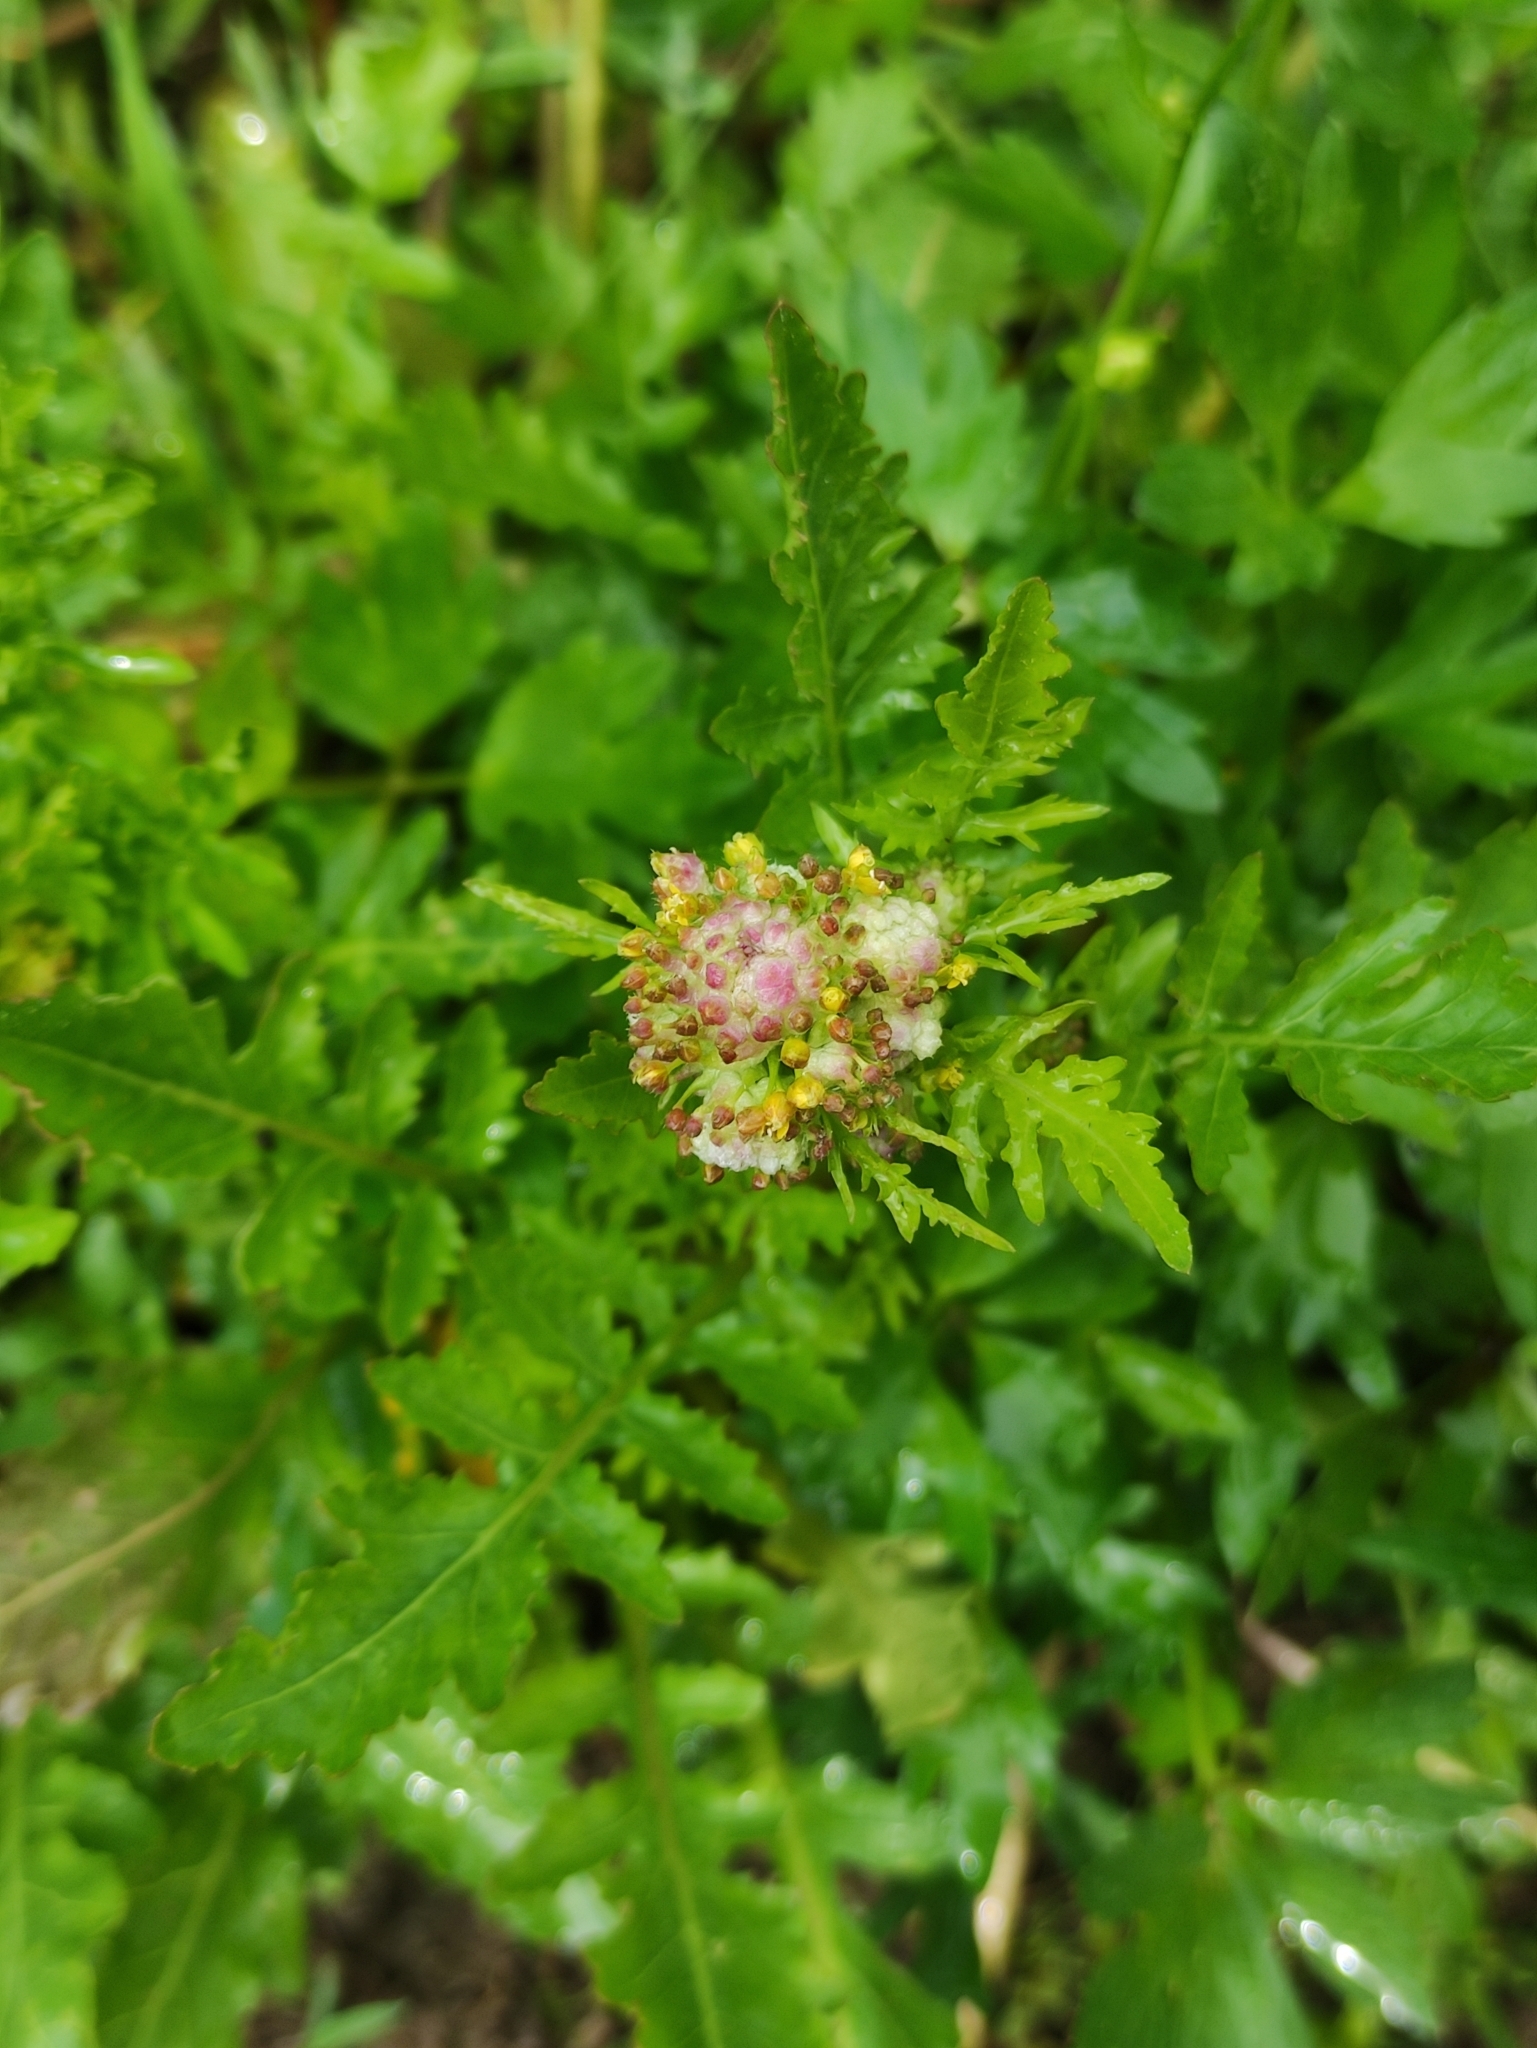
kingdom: Plantae
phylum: Tracheophyta
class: Magnoliopsida
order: Brassicales
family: Brassicaceae
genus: Rorippa
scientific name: Rorippa palustris
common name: Marsh yellow-cress
